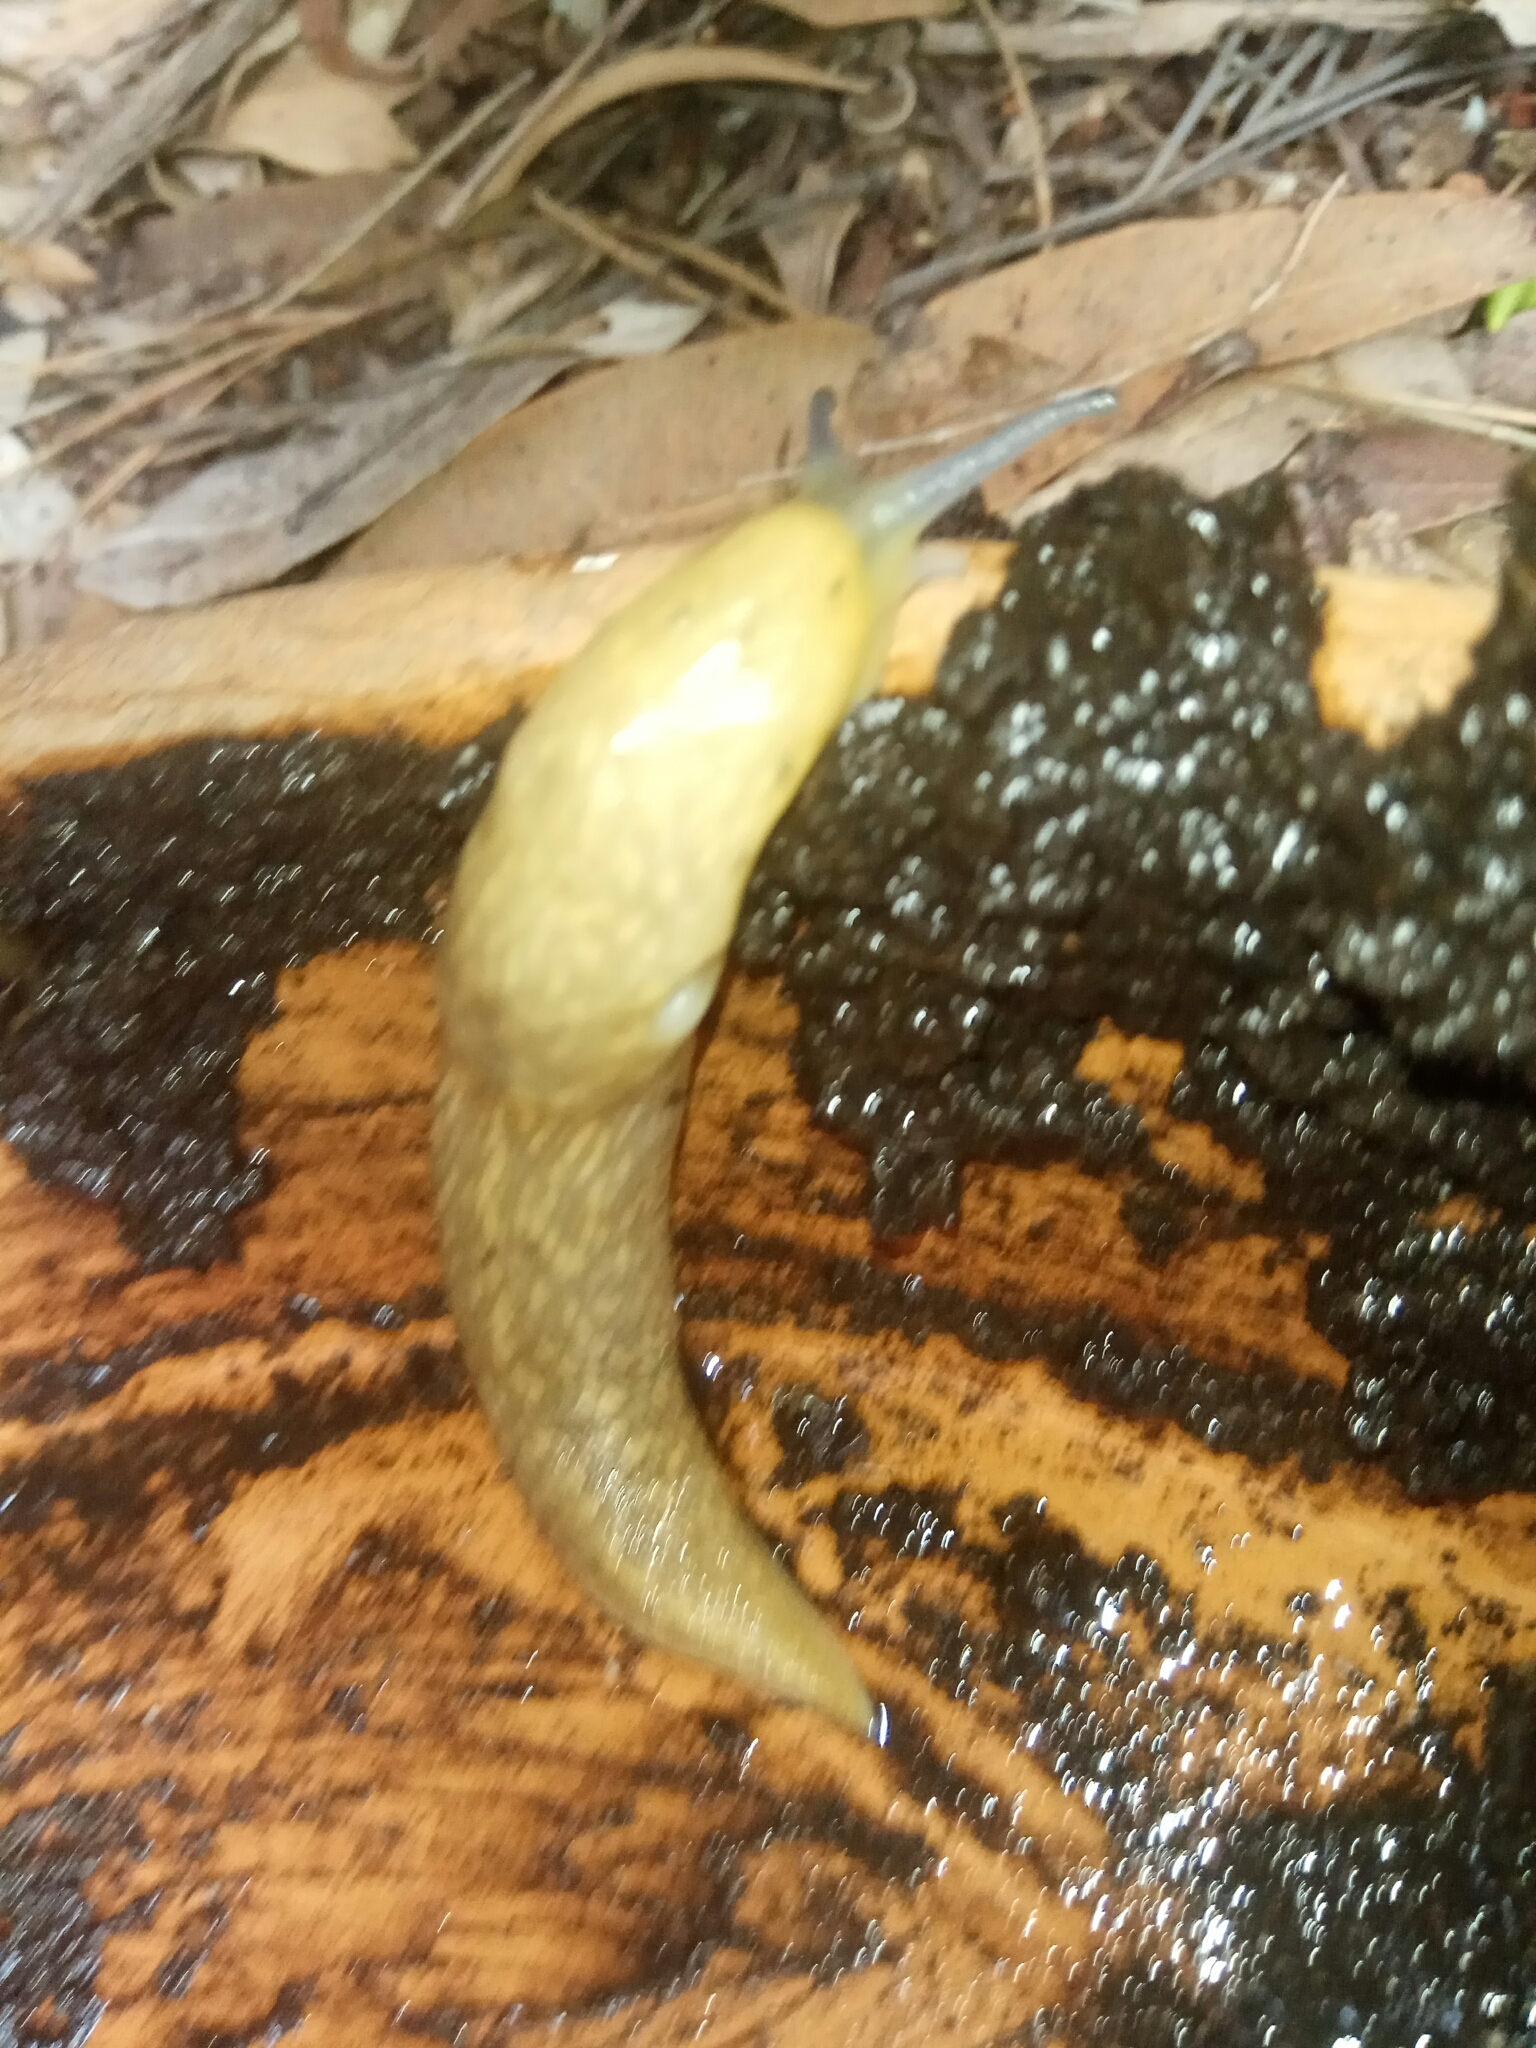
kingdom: Animalia
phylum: Mollusca
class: Gastropoda
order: Stylommatophora
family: Limacidae
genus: Limacus
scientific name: Limacus flavus
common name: Yellow gardenslug
